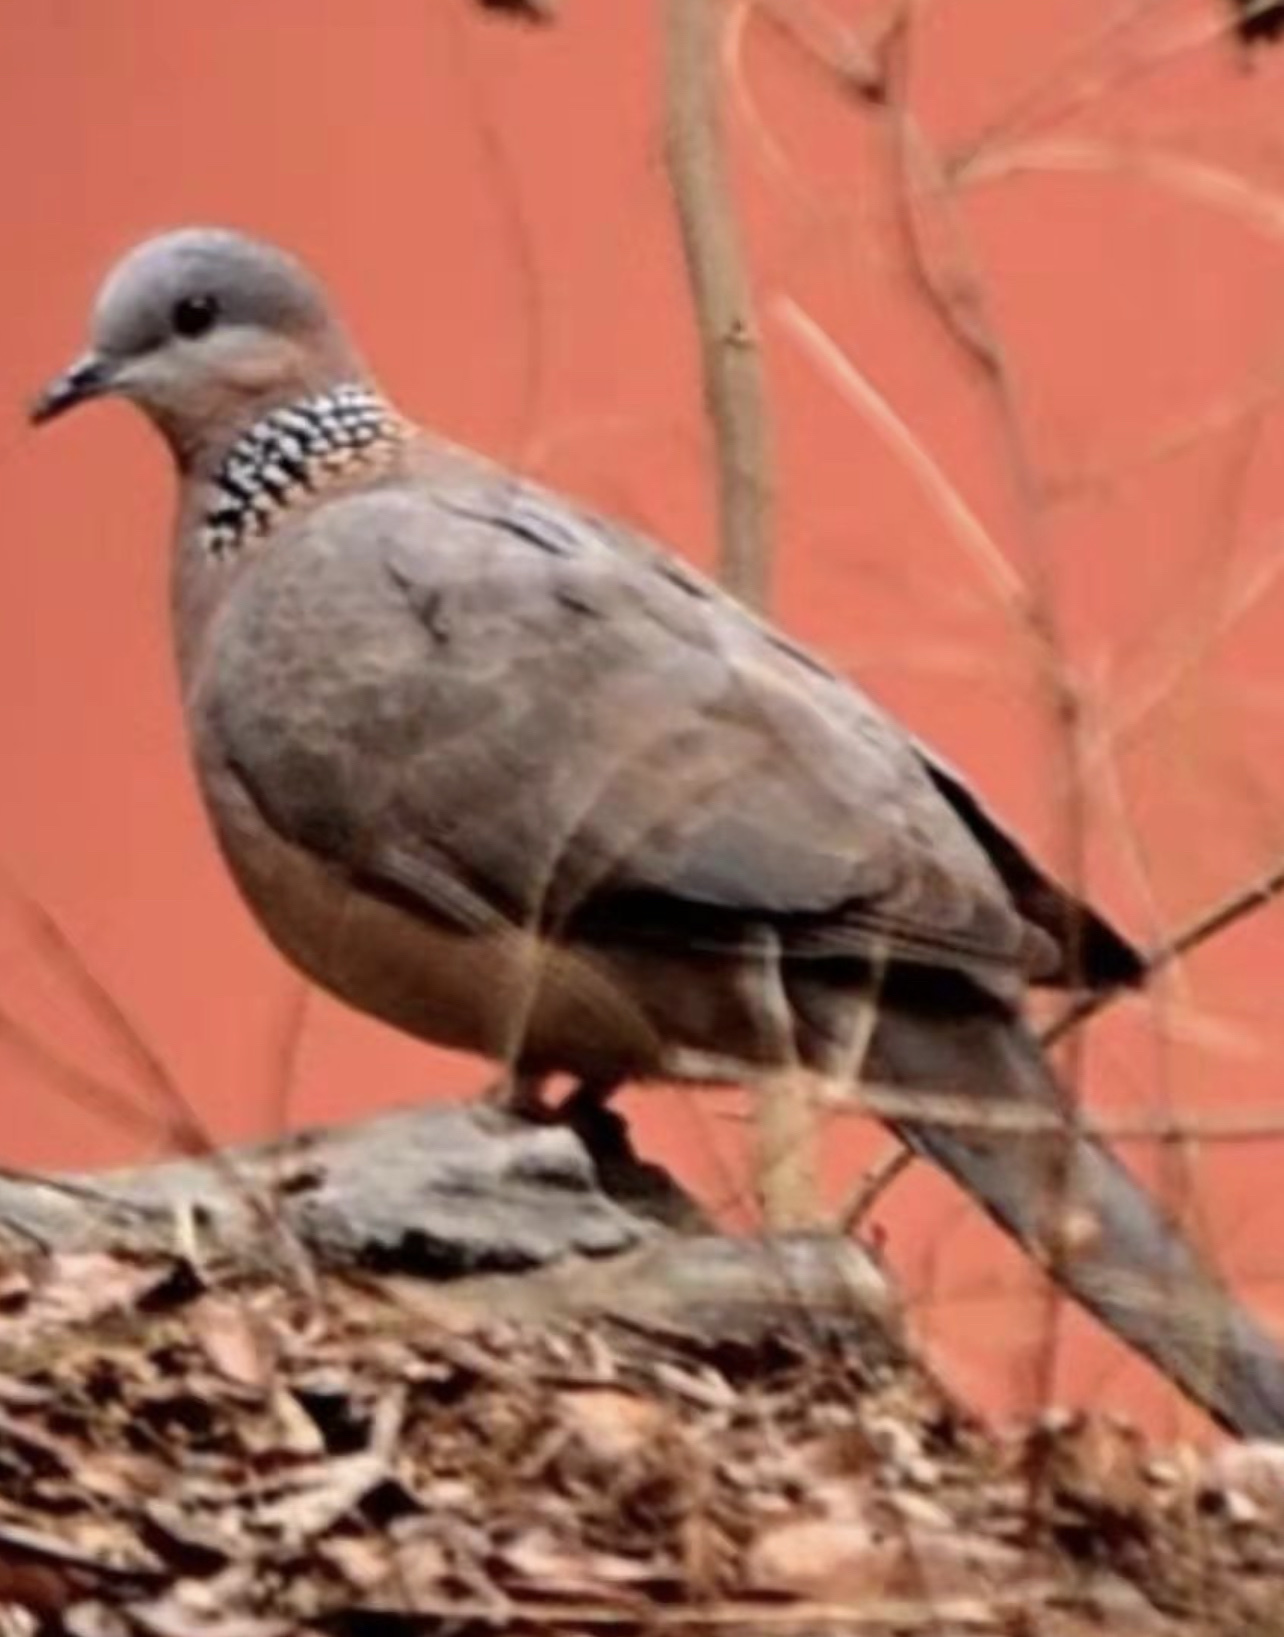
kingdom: Animalia
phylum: Chordata
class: Aves
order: Columbiformes
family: Columbidae
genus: Spilopelia
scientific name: Spilopelia chinensis
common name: Spotted dove
